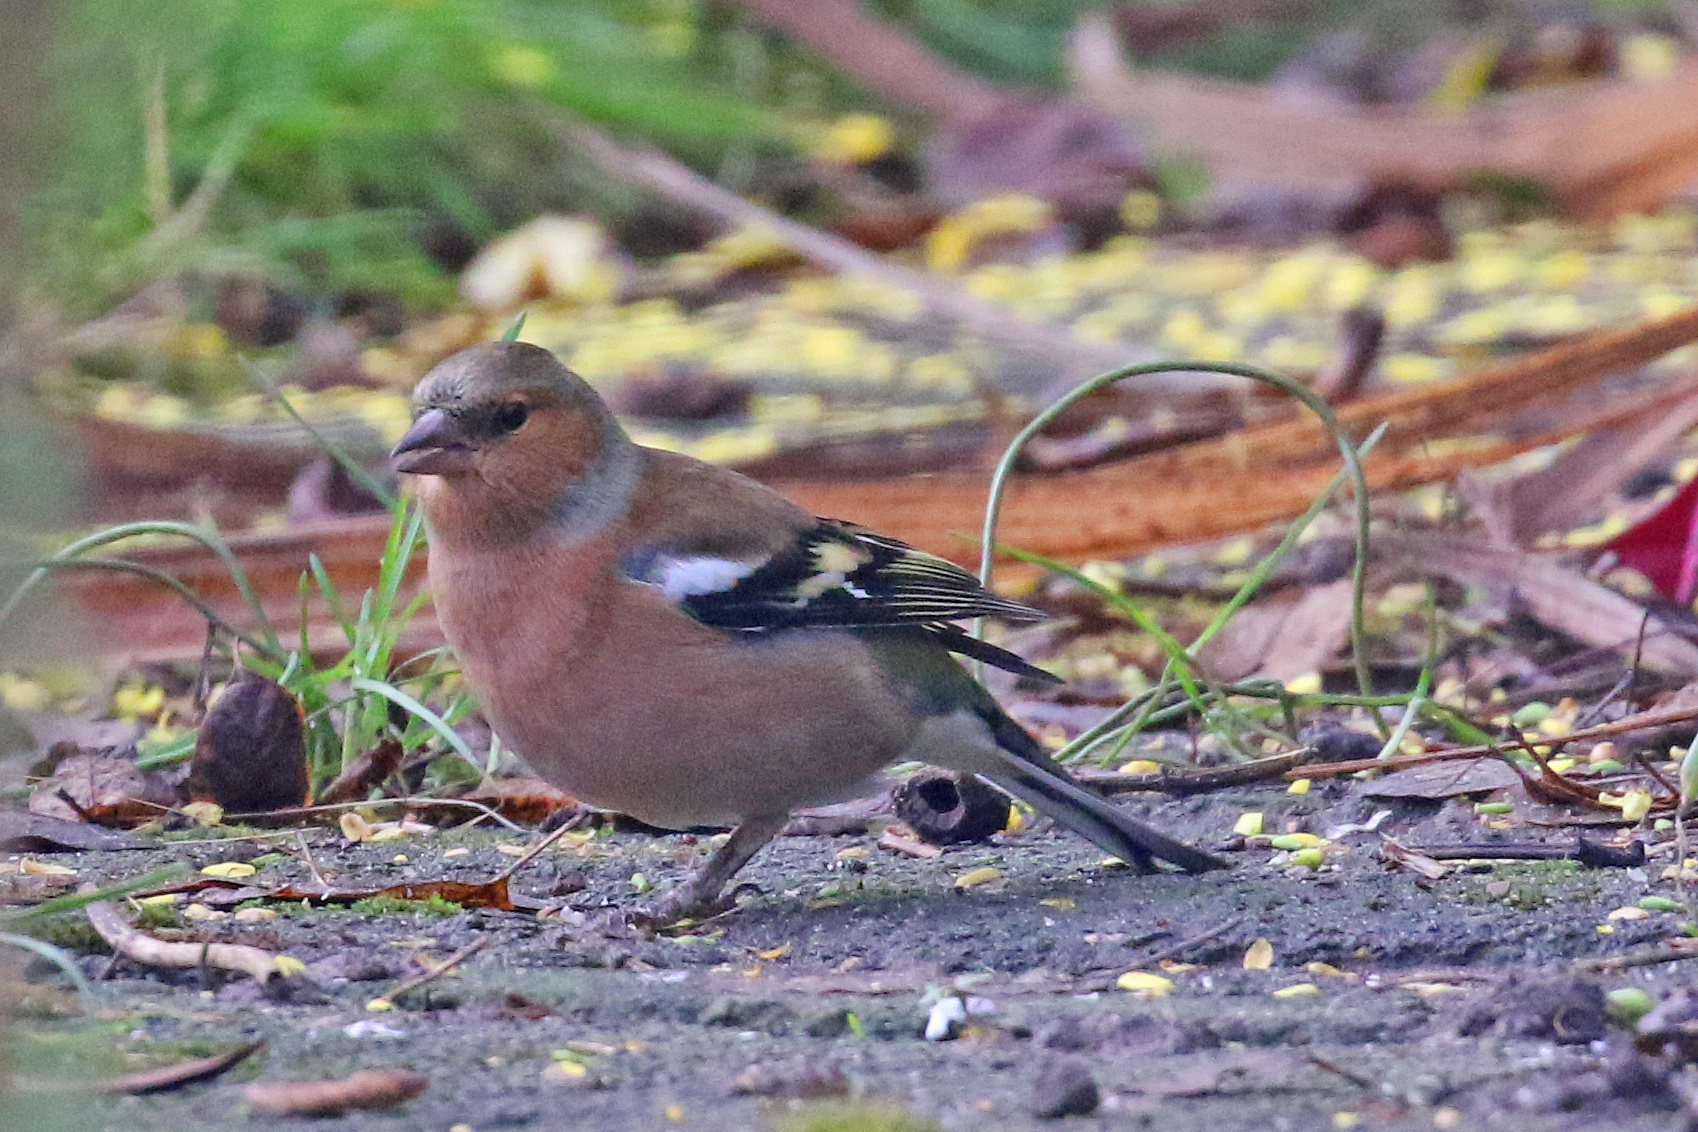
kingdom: Animalia
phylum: Chordata
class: Aves
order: Passeriformes
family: Fringillidae
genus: Fringilla
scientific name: Fringilla coelebs
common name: Common chaffinch
